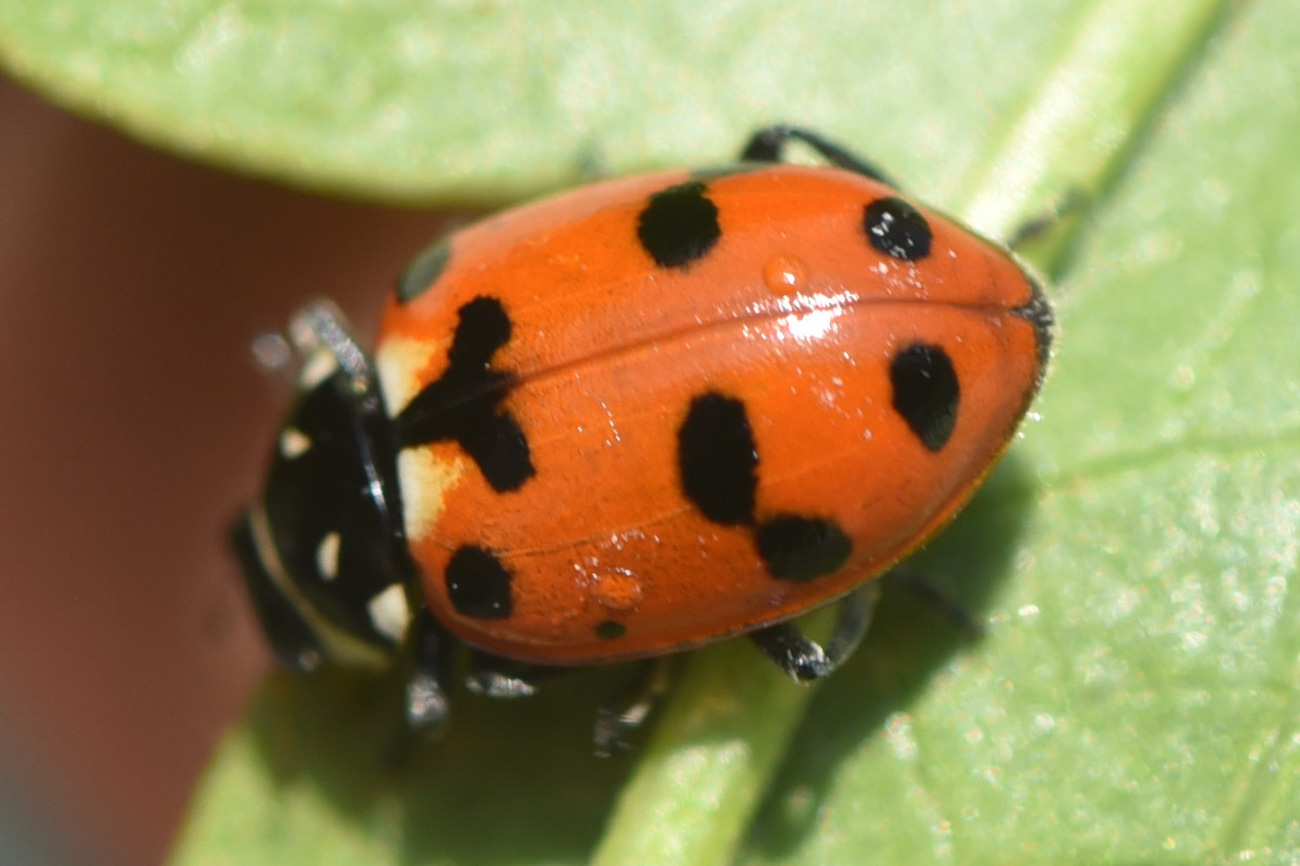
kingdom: Animalia
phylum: Arthropoda
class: Insecta
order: Coleoptera
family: Coccinellidae
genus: Hippodamia
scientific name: Hippodamia caseyi
